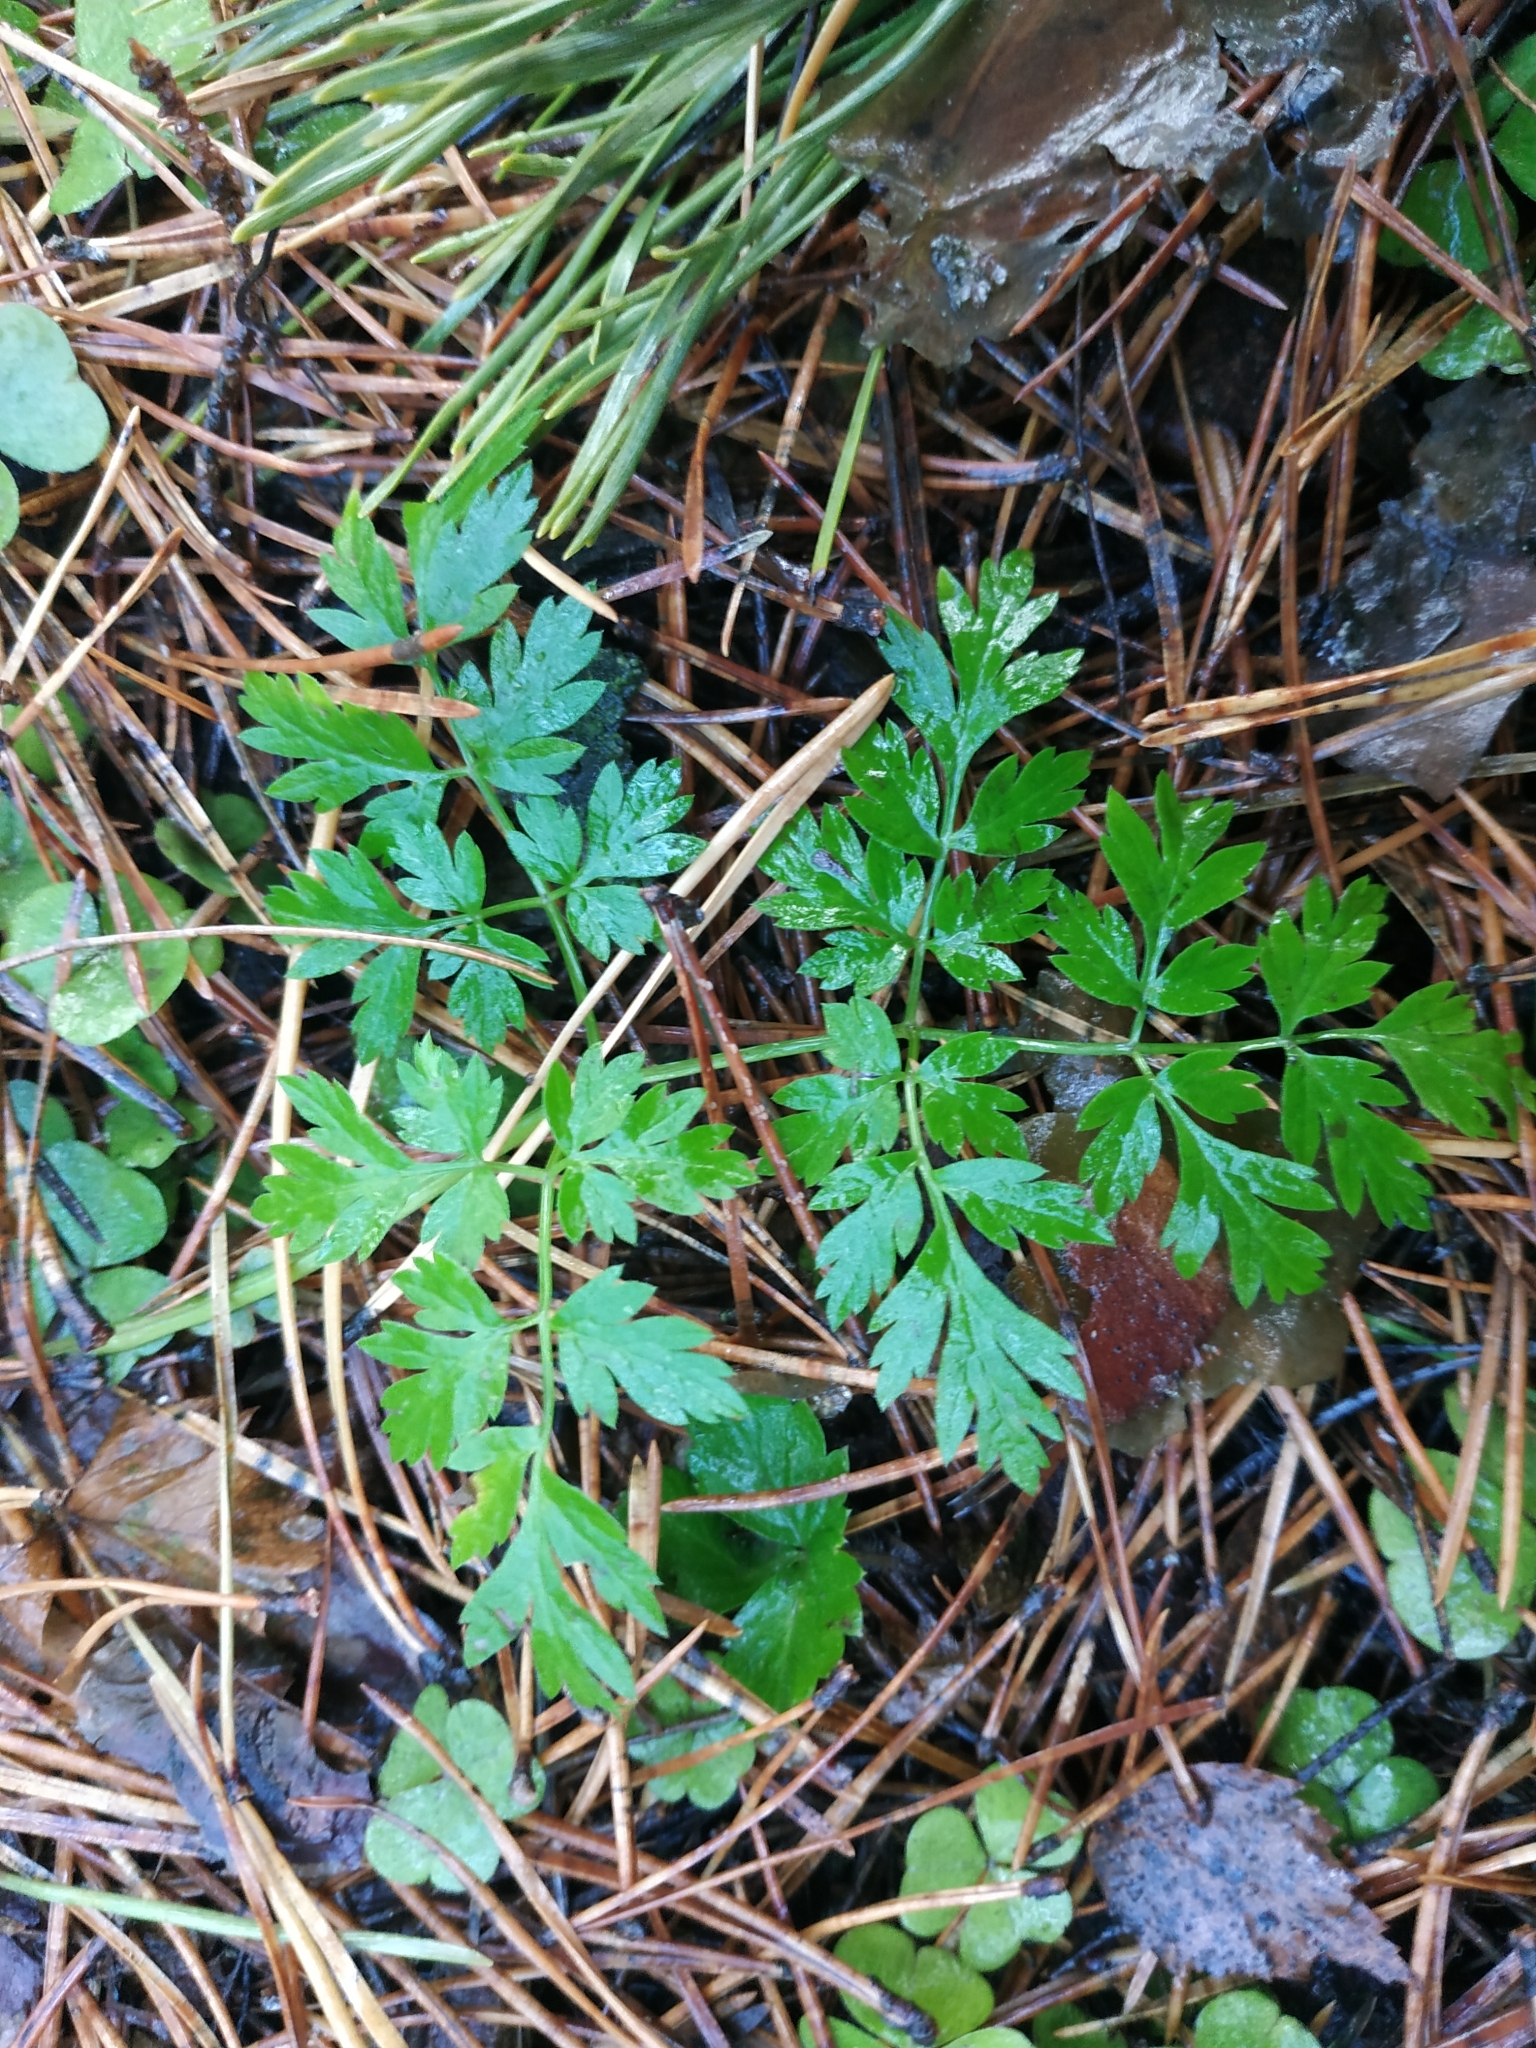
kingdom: Plantae
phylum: Tracheophyta
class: Magnoliopsida
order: Apiales
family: Apiaceae
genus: Anthriscus
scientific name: Anthriscus sylvestris
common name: Cow parsley
